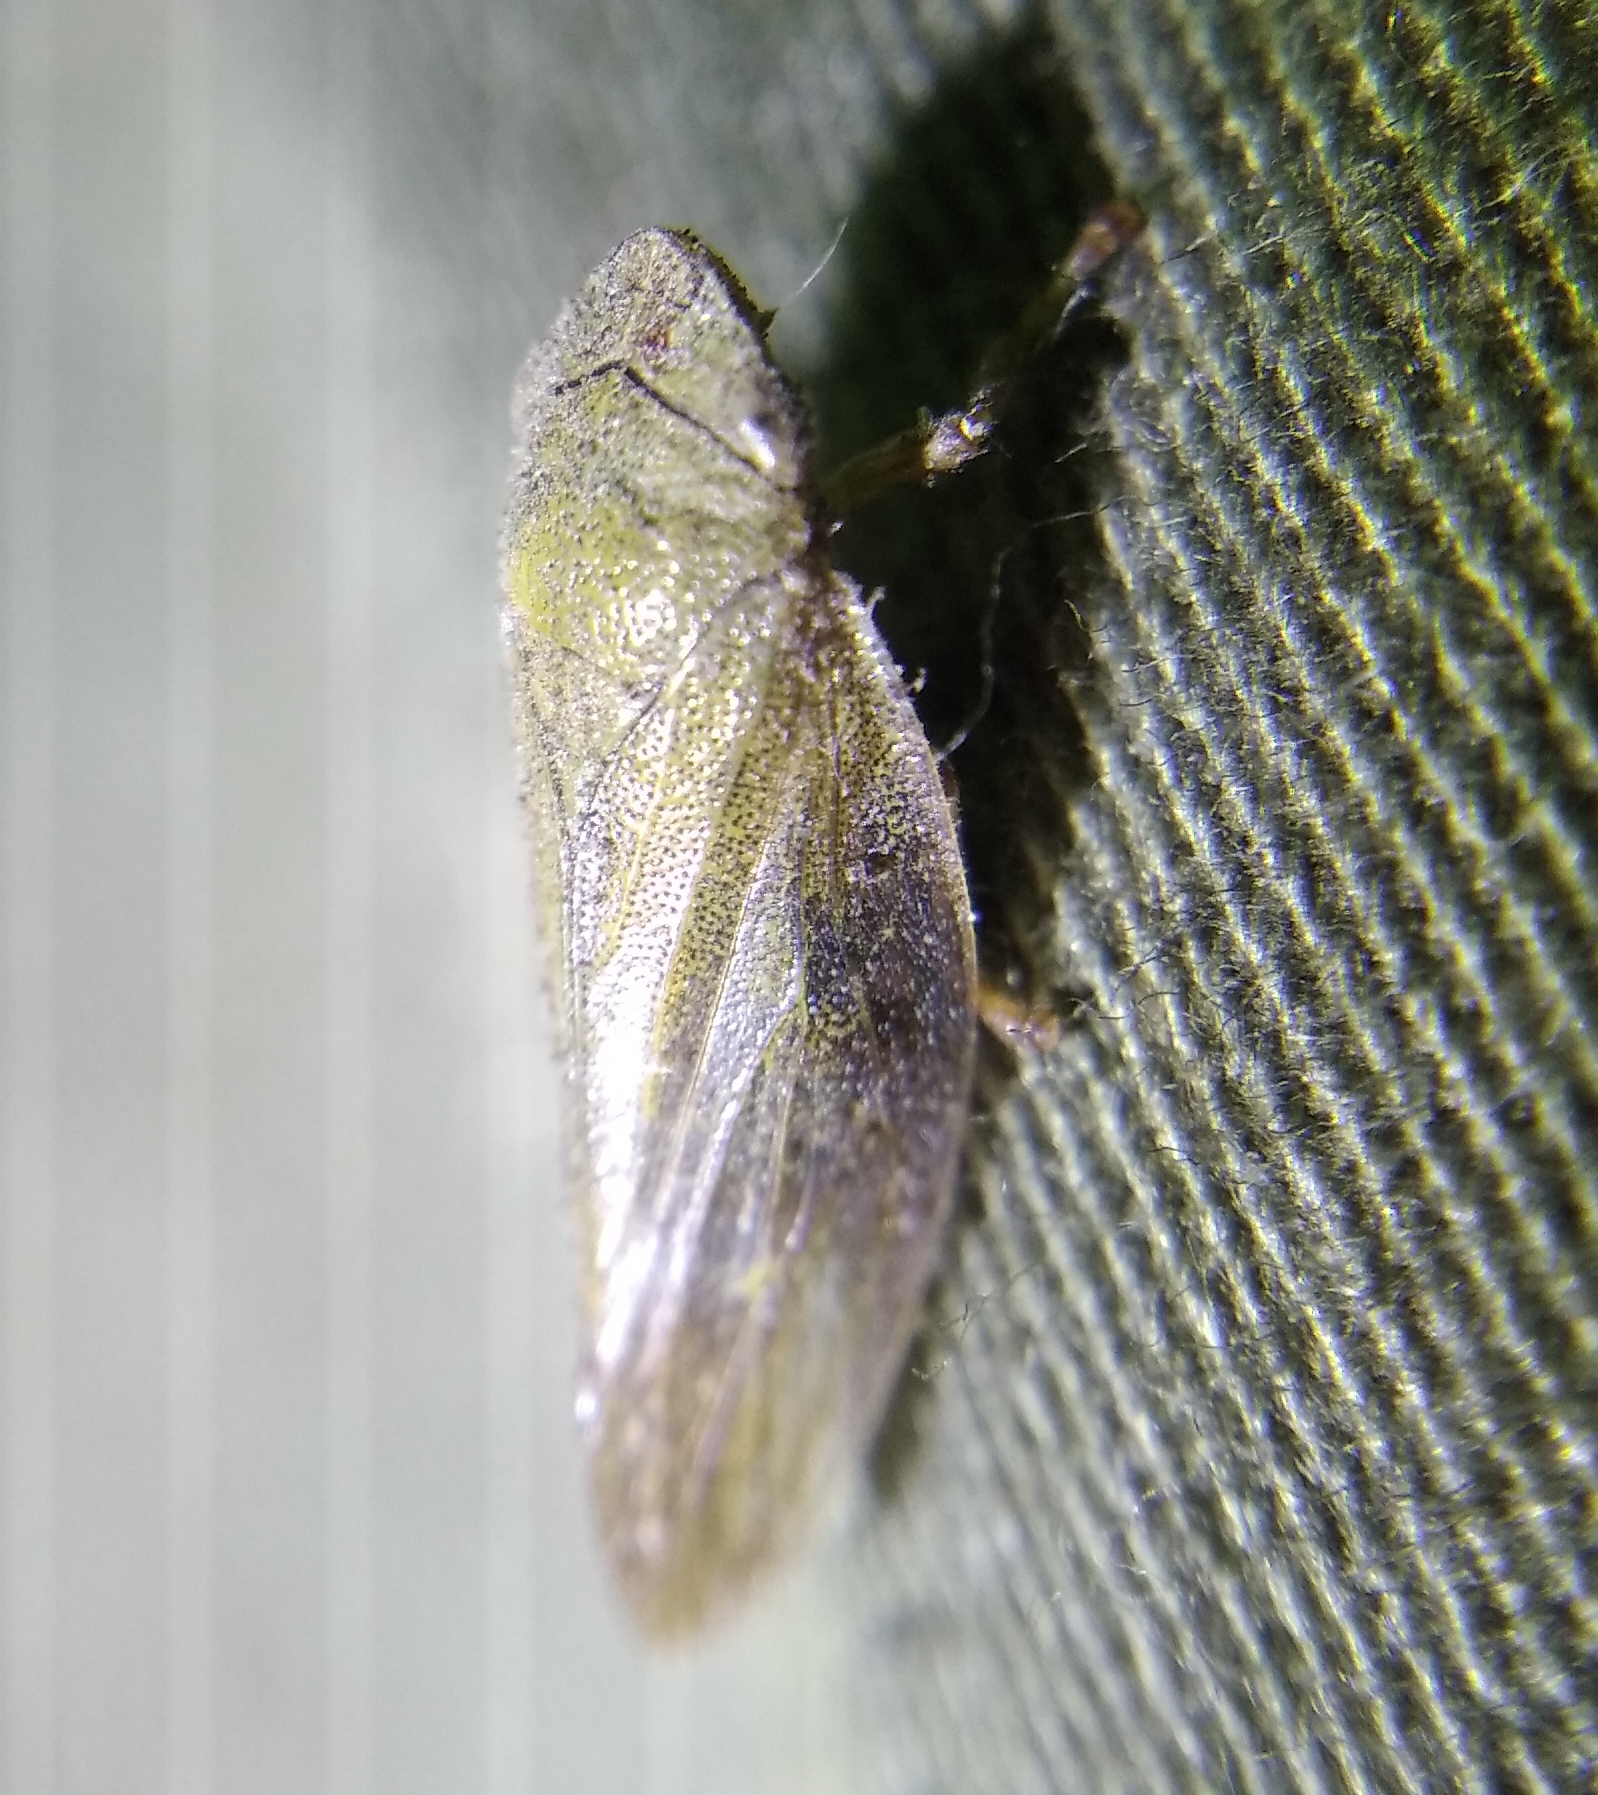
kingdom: Animalia
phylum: Arthropoda
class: Insecta
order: Hemiptera
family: Aphrophoridae
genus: Aphrophora
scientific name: Aphrophora alni
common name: European alder spittlebug
